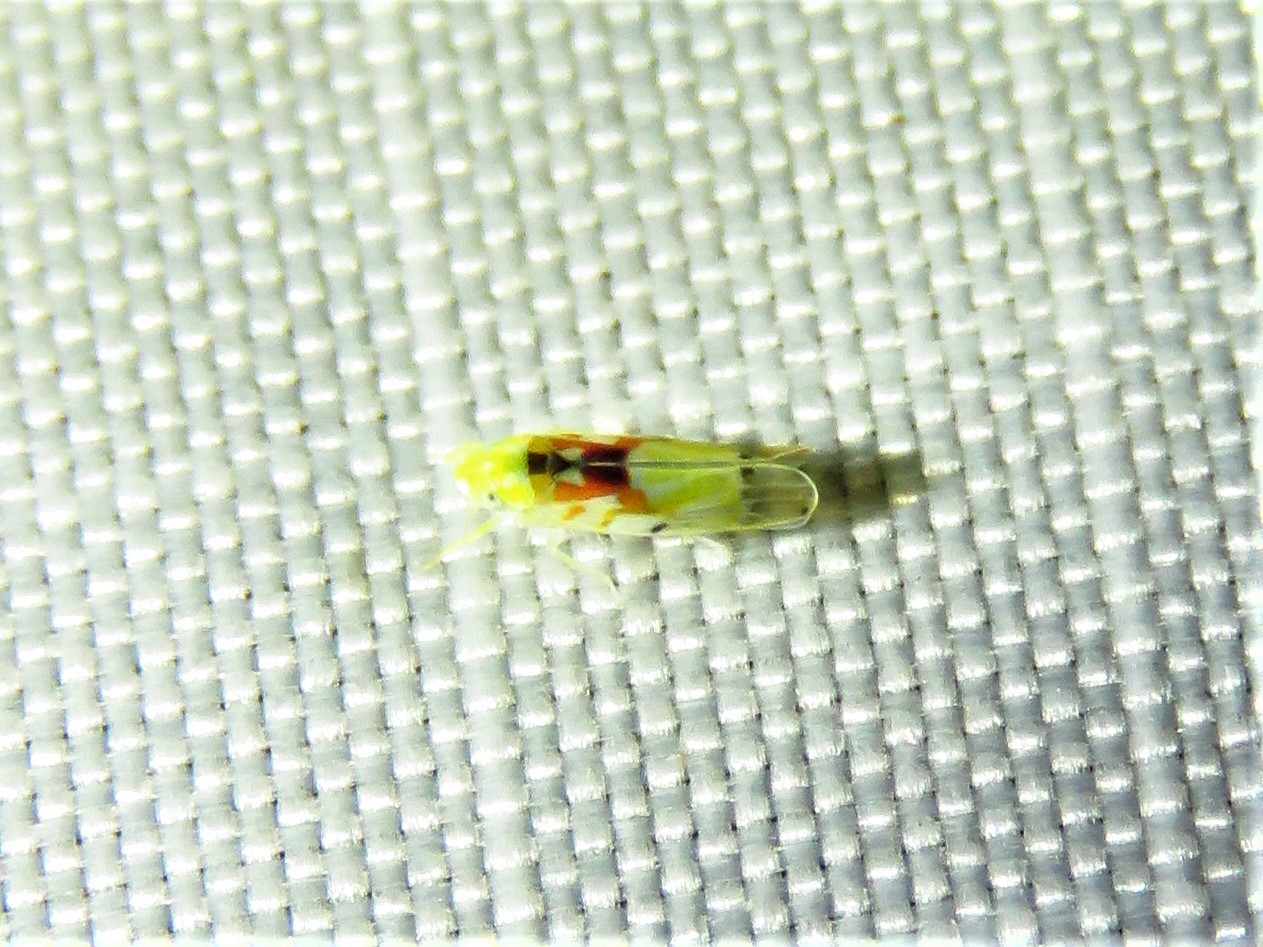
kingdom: Animalia
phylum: Arthropoda
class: Insecta
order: Hemiptera
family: Cicadellidae
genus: Erythroneura
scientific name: Erythroneura octonotata
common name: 8-spotted leafhopper
